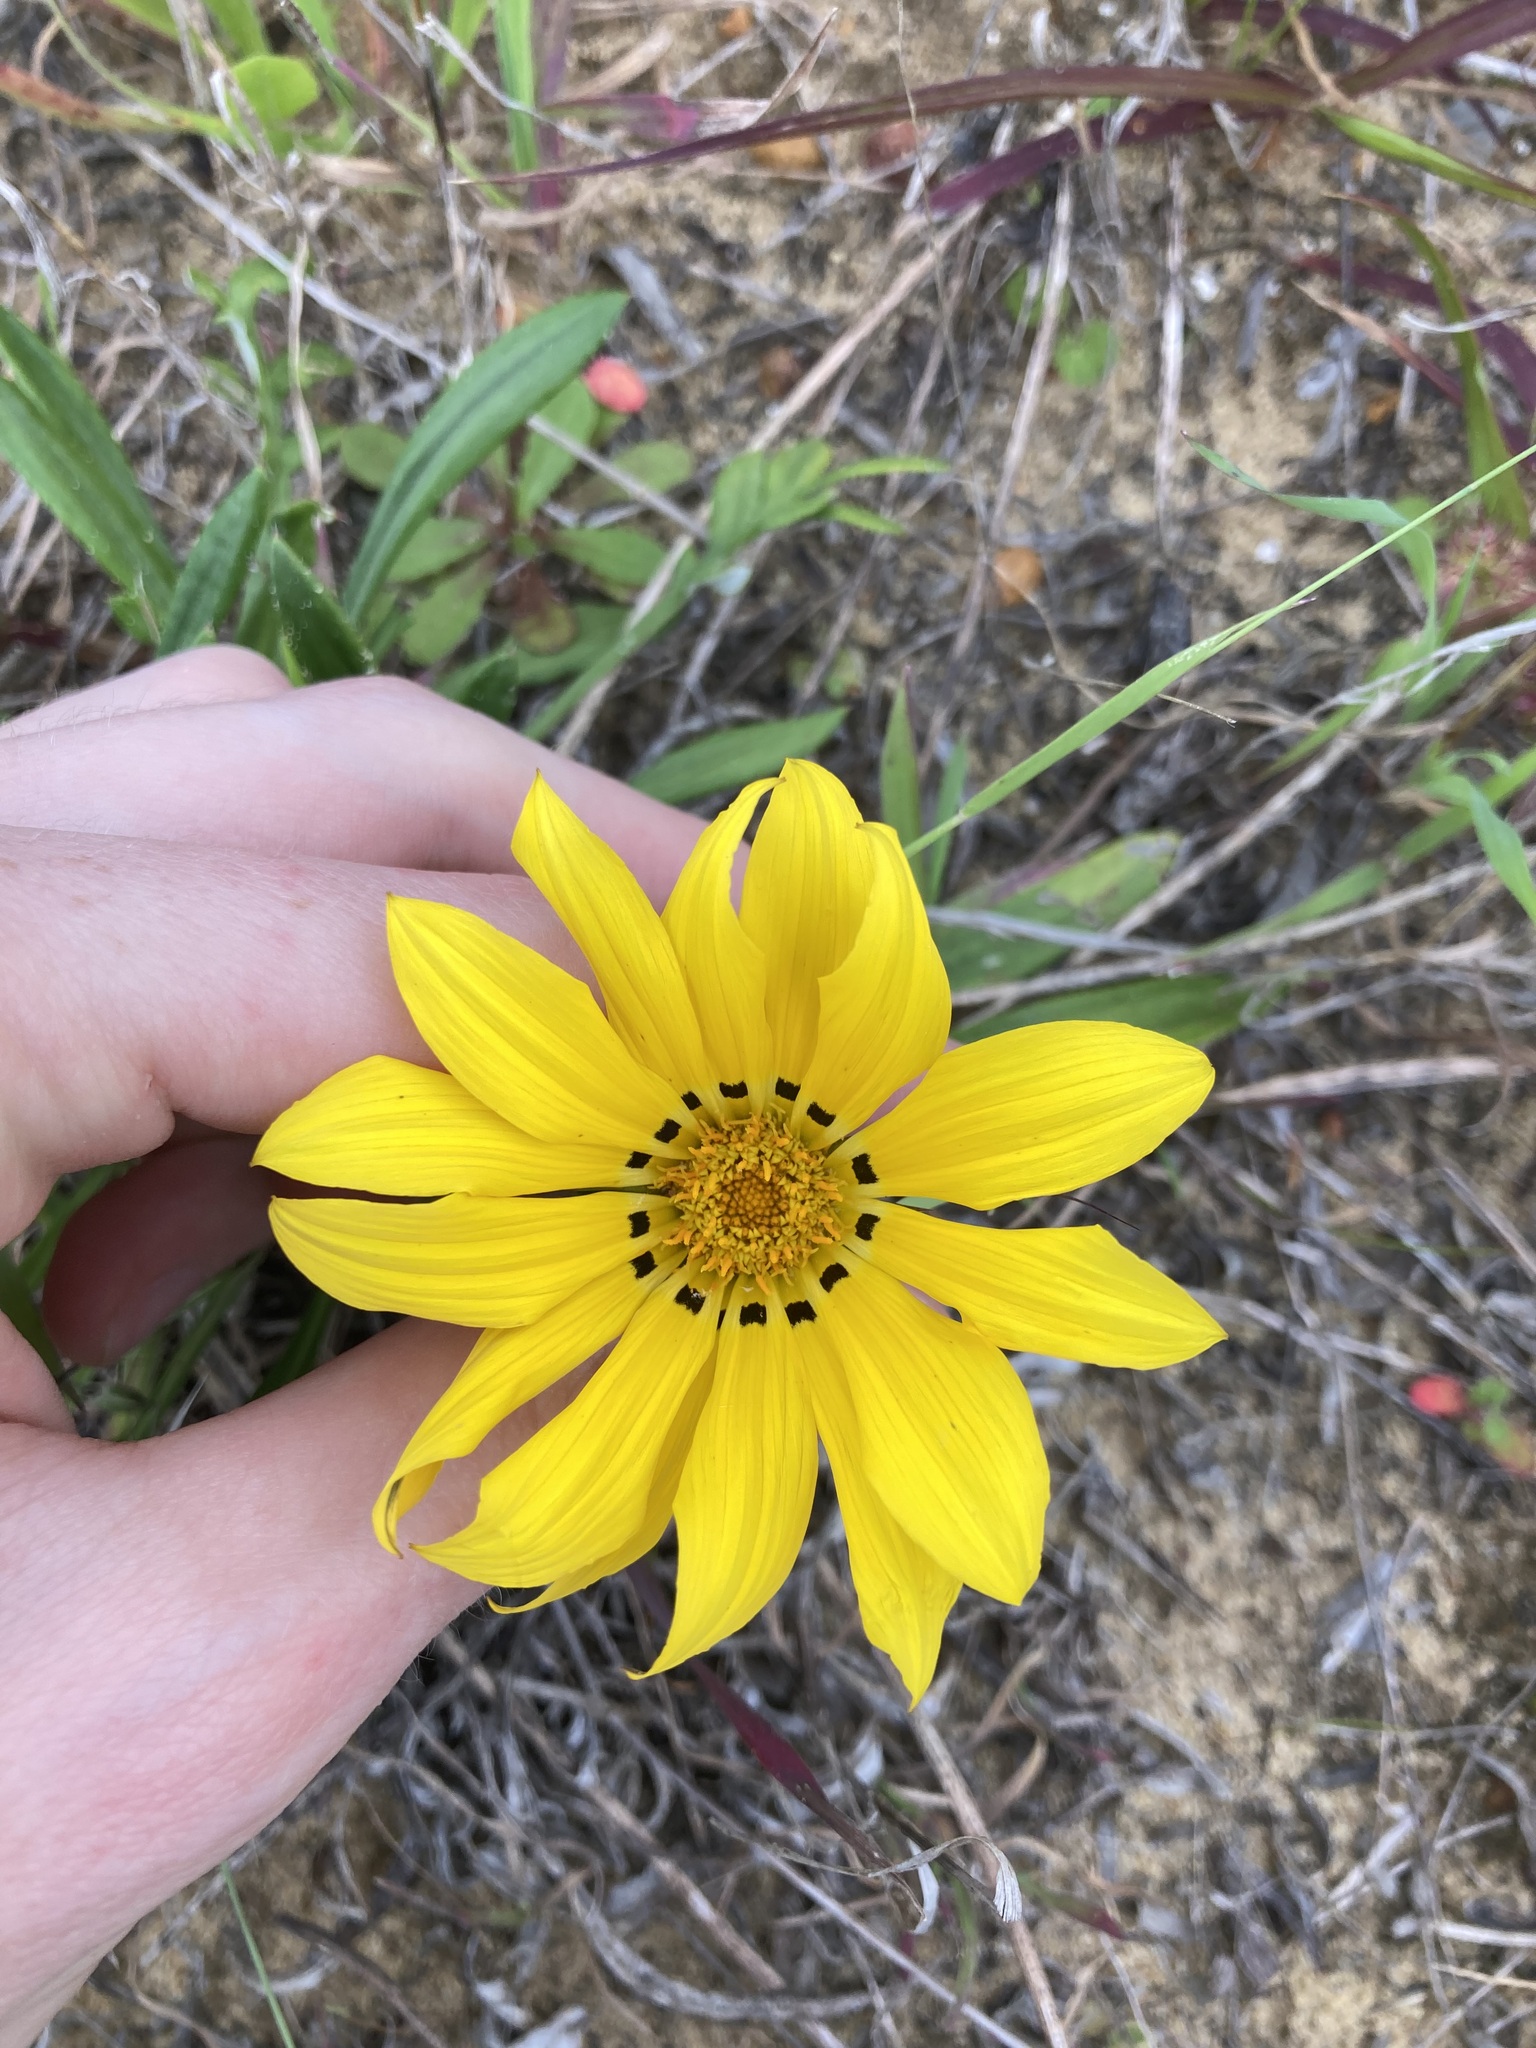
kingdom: Plantae
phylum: Tracheophyta
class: Magnoliopsida
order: Asterales
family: Asteraceae
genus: Gazania
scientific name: Gazania splendens
